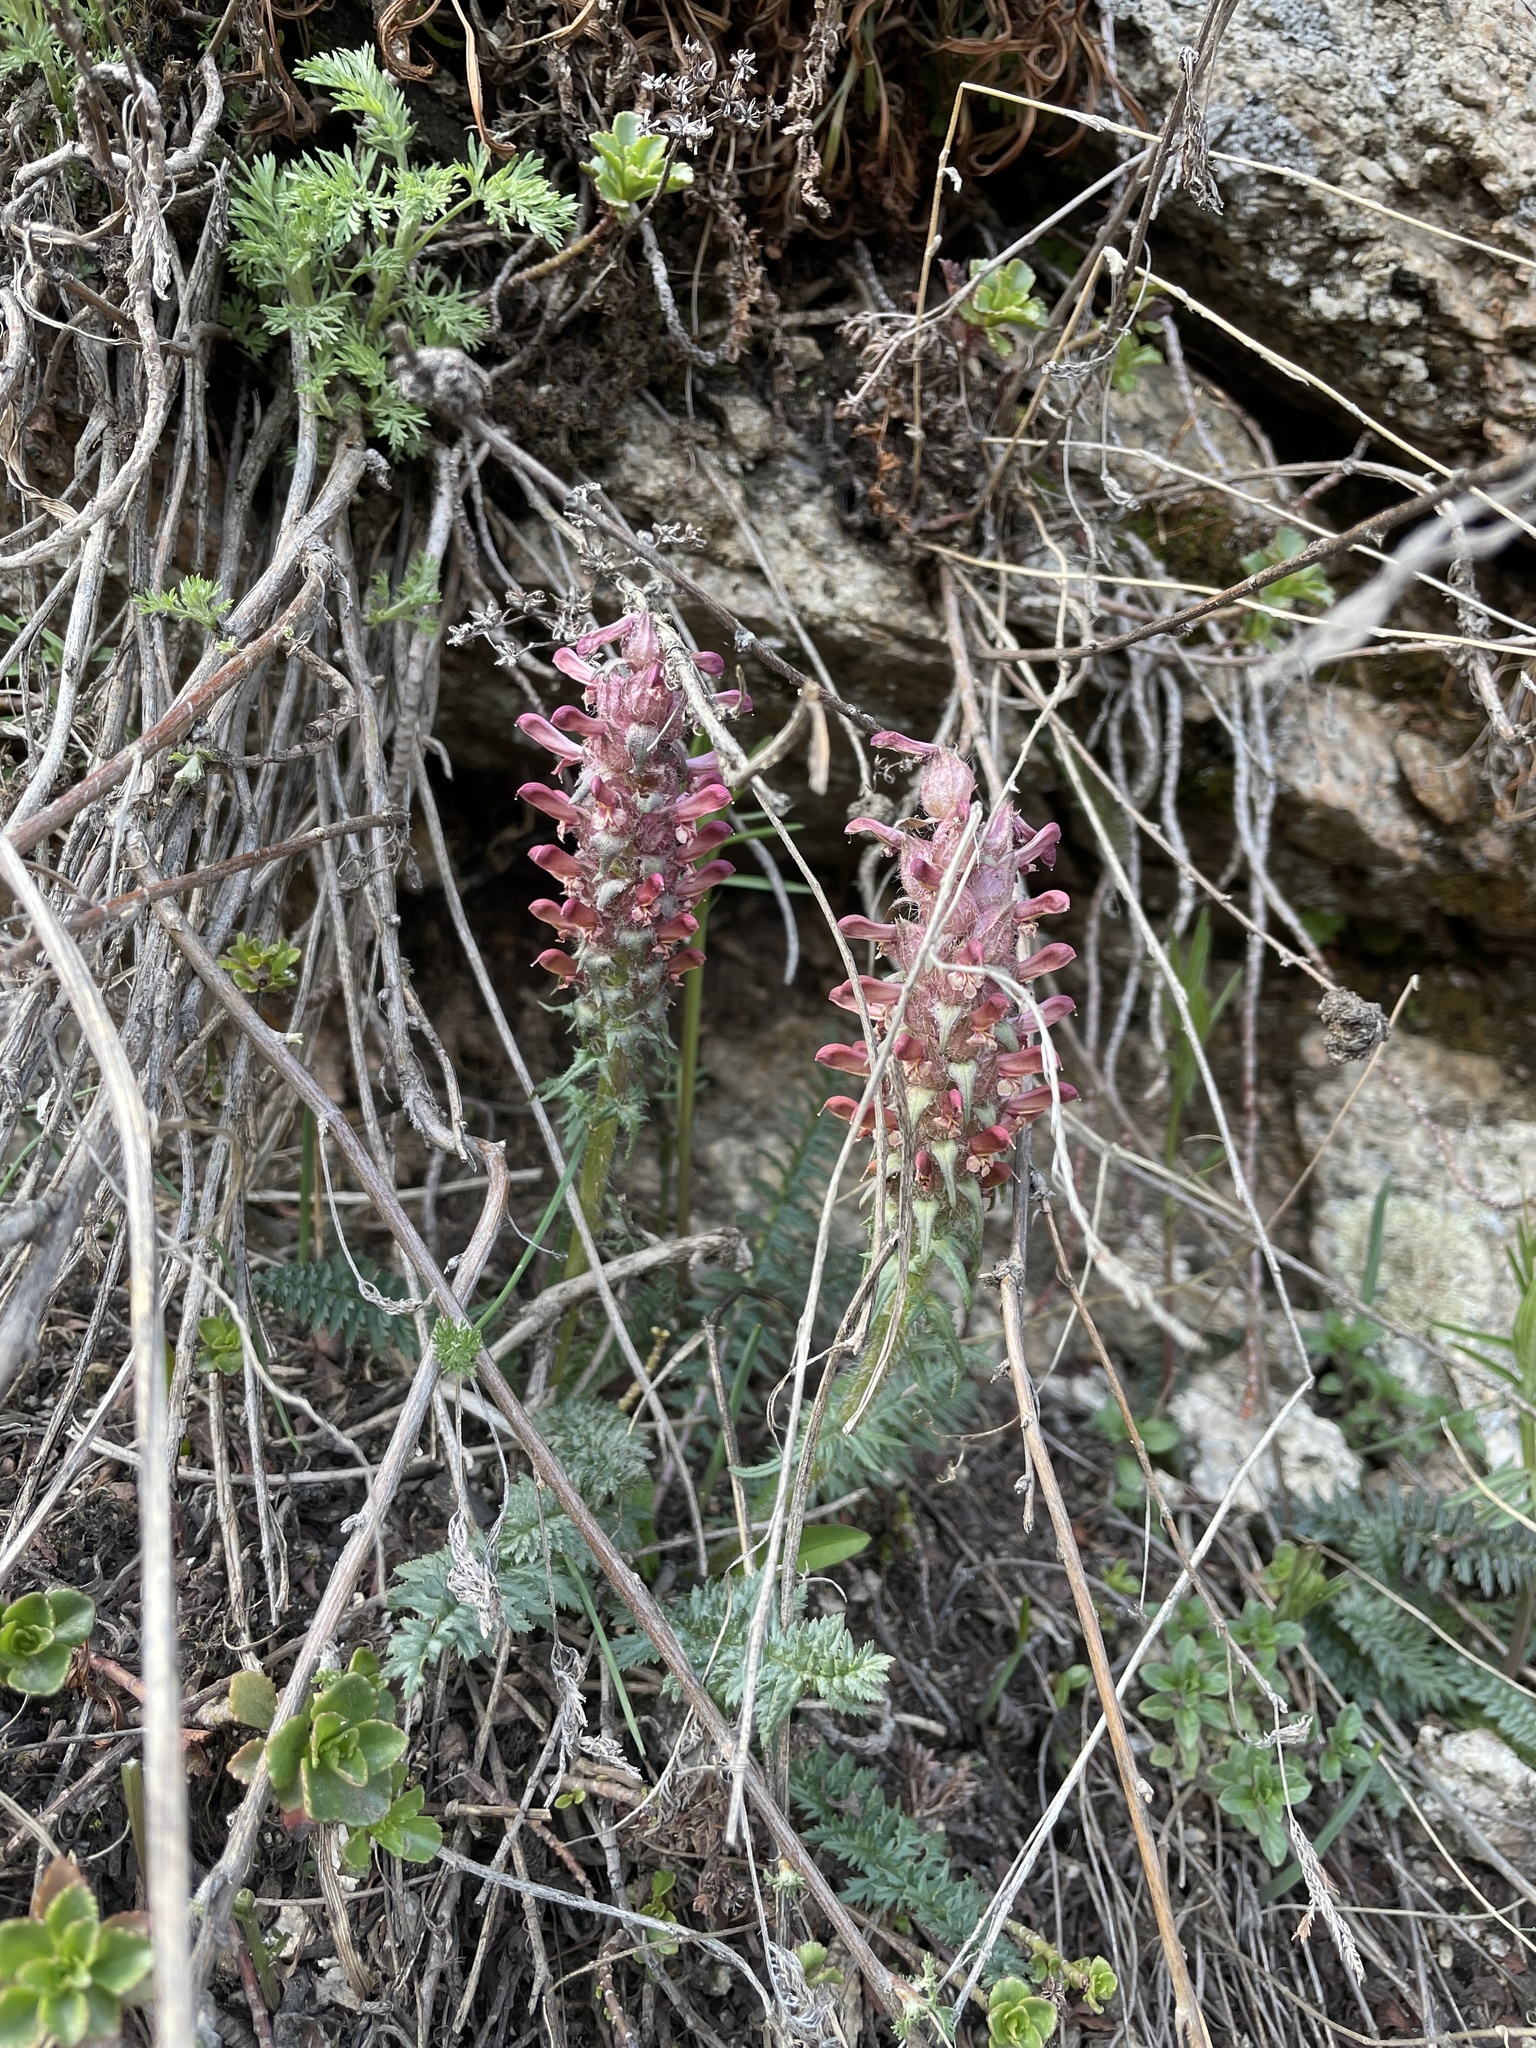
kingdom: Plantae
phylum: Tracheophyta
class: Magnoliopsida
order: Lamiales
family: Orobanchaceae
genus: Pedicularis
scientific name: Pedicularis alberti
